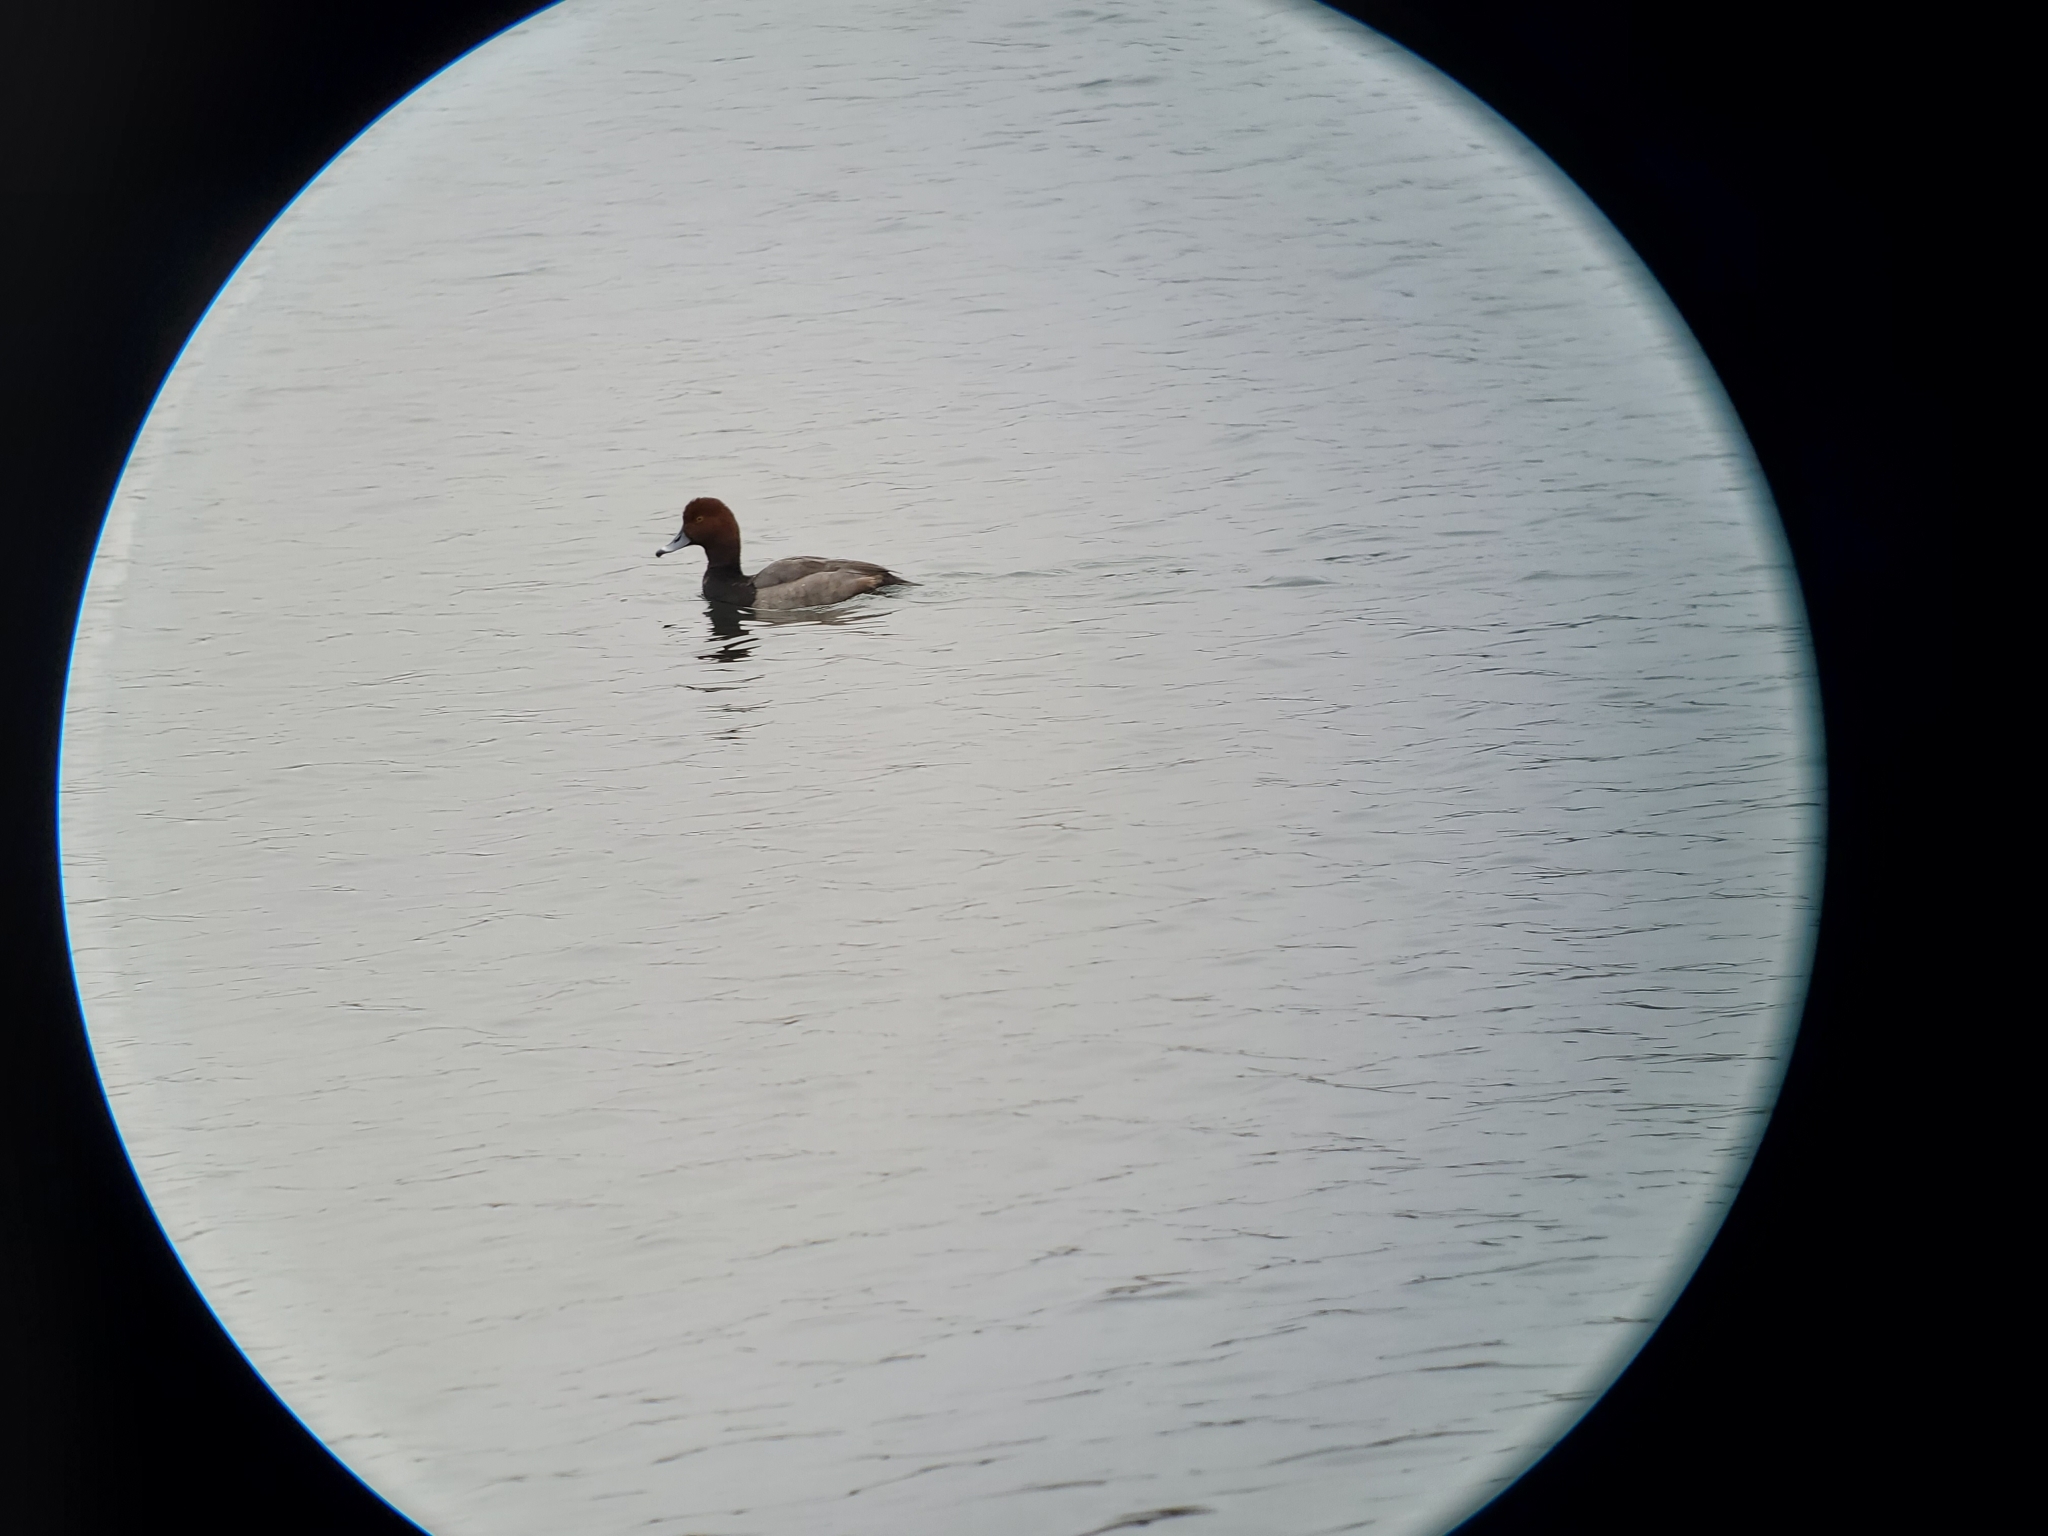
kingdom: Animalia
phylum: Chordata
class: Aves
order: Anseriformes
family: Anatidae
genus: Aythya
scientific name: Aythya americana
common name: Redhead
